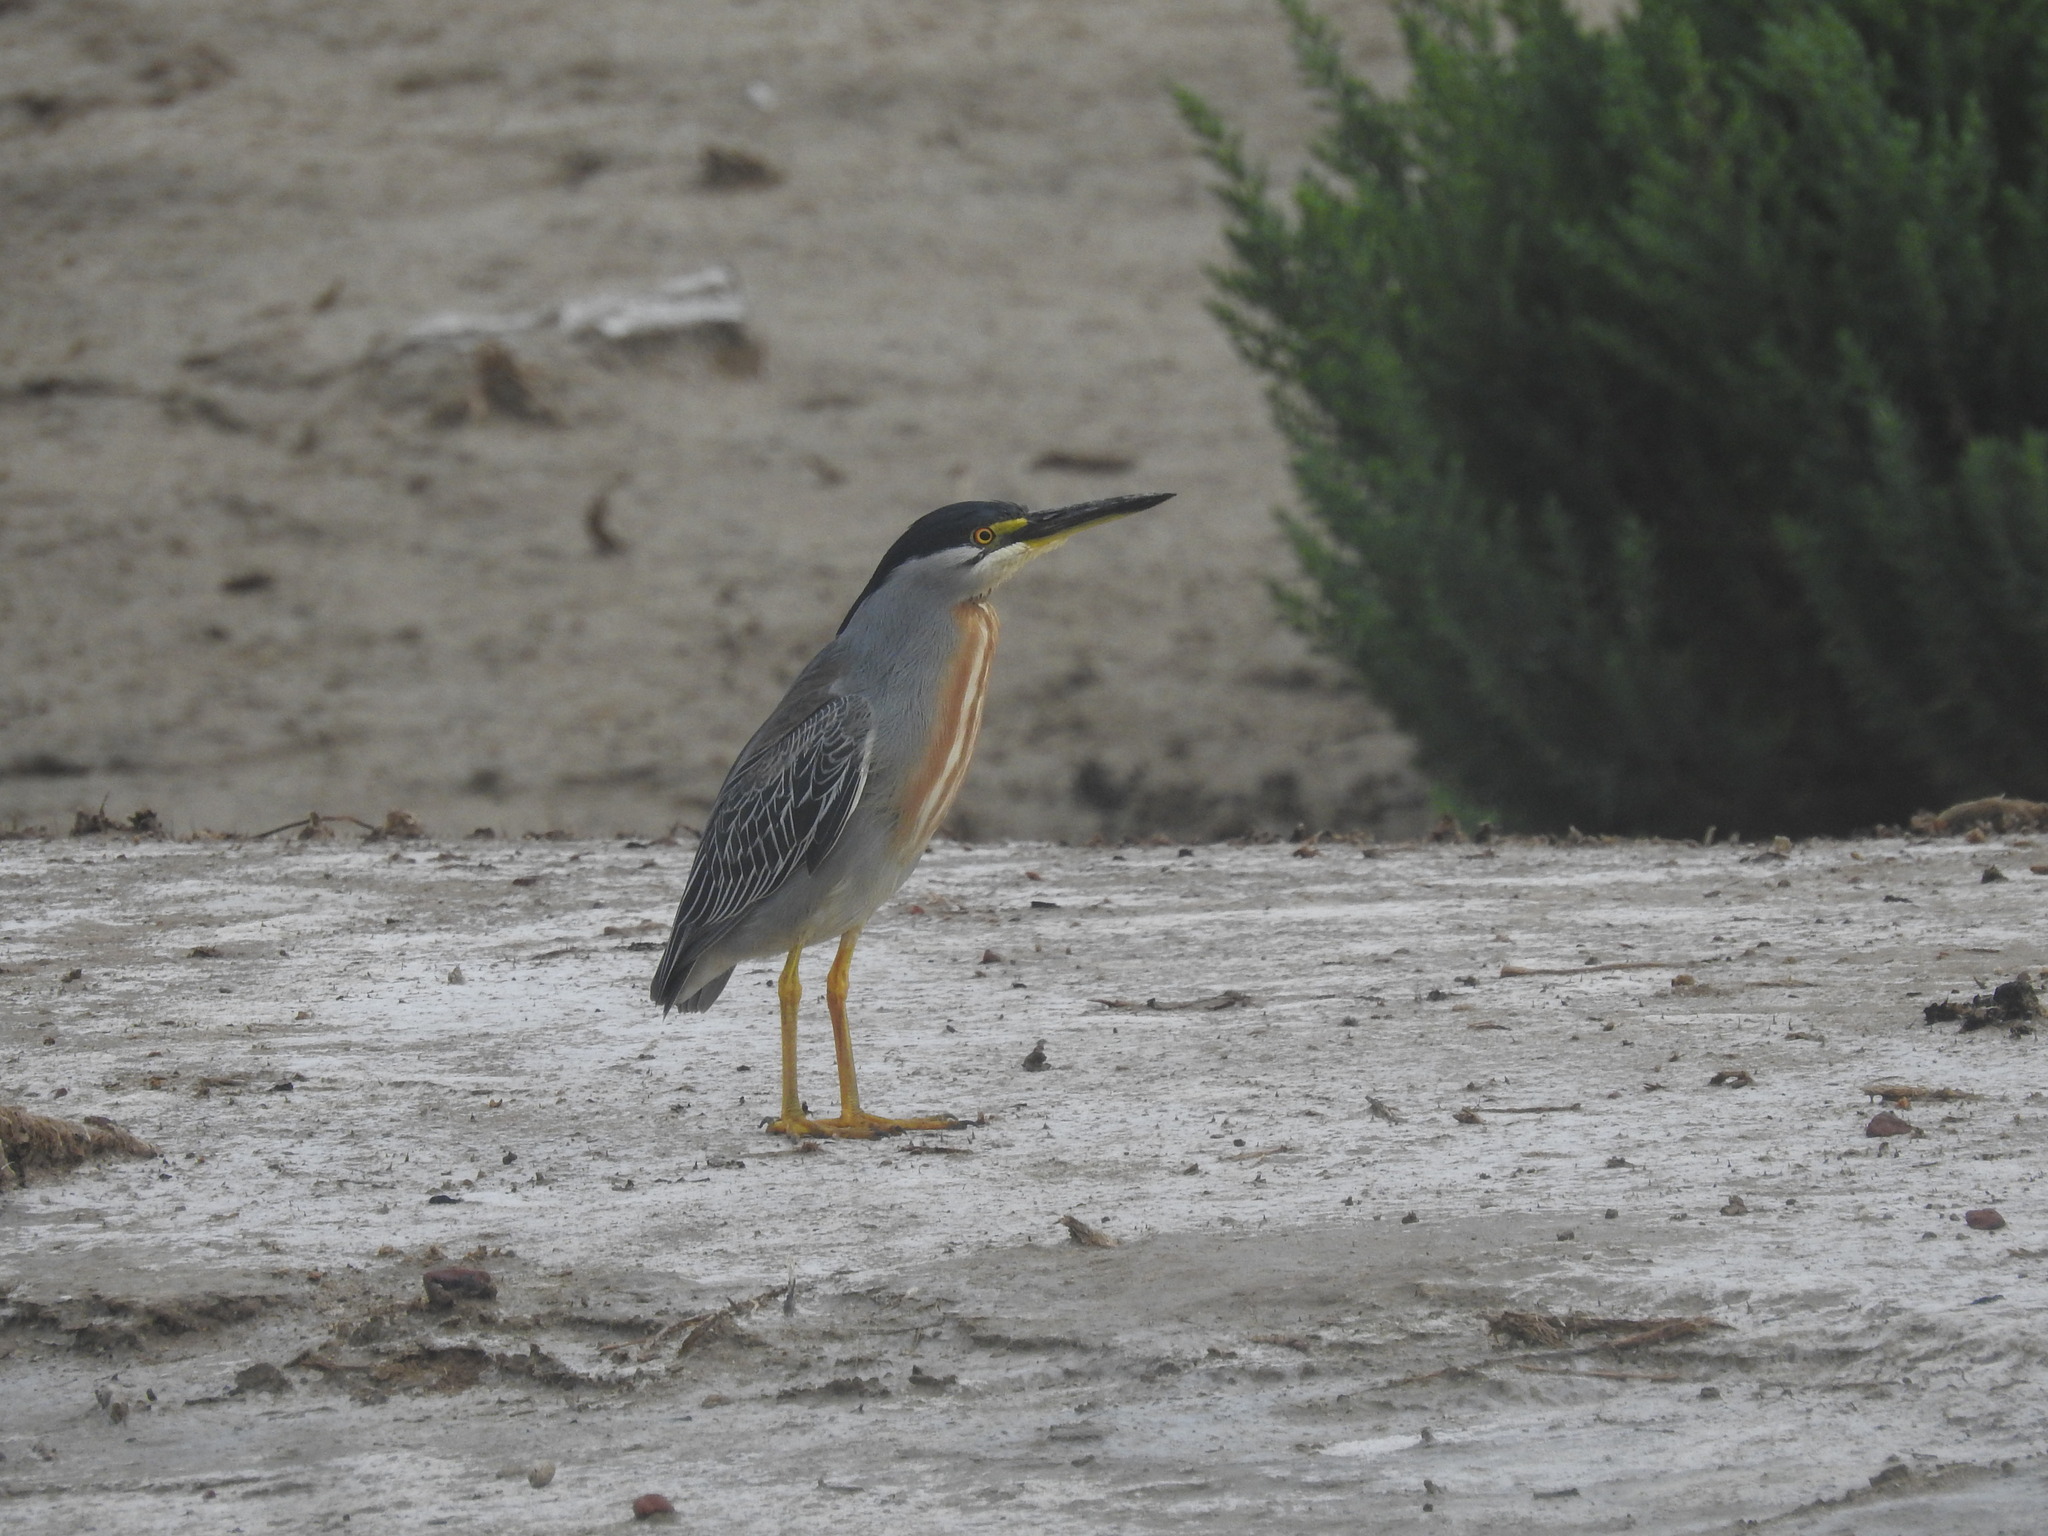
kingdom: Animalia
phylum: Chordata
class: Aves
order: Pelecaniformes
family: Ardeidae
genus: Butorides
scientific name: Butorides striata
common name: Striated heron
